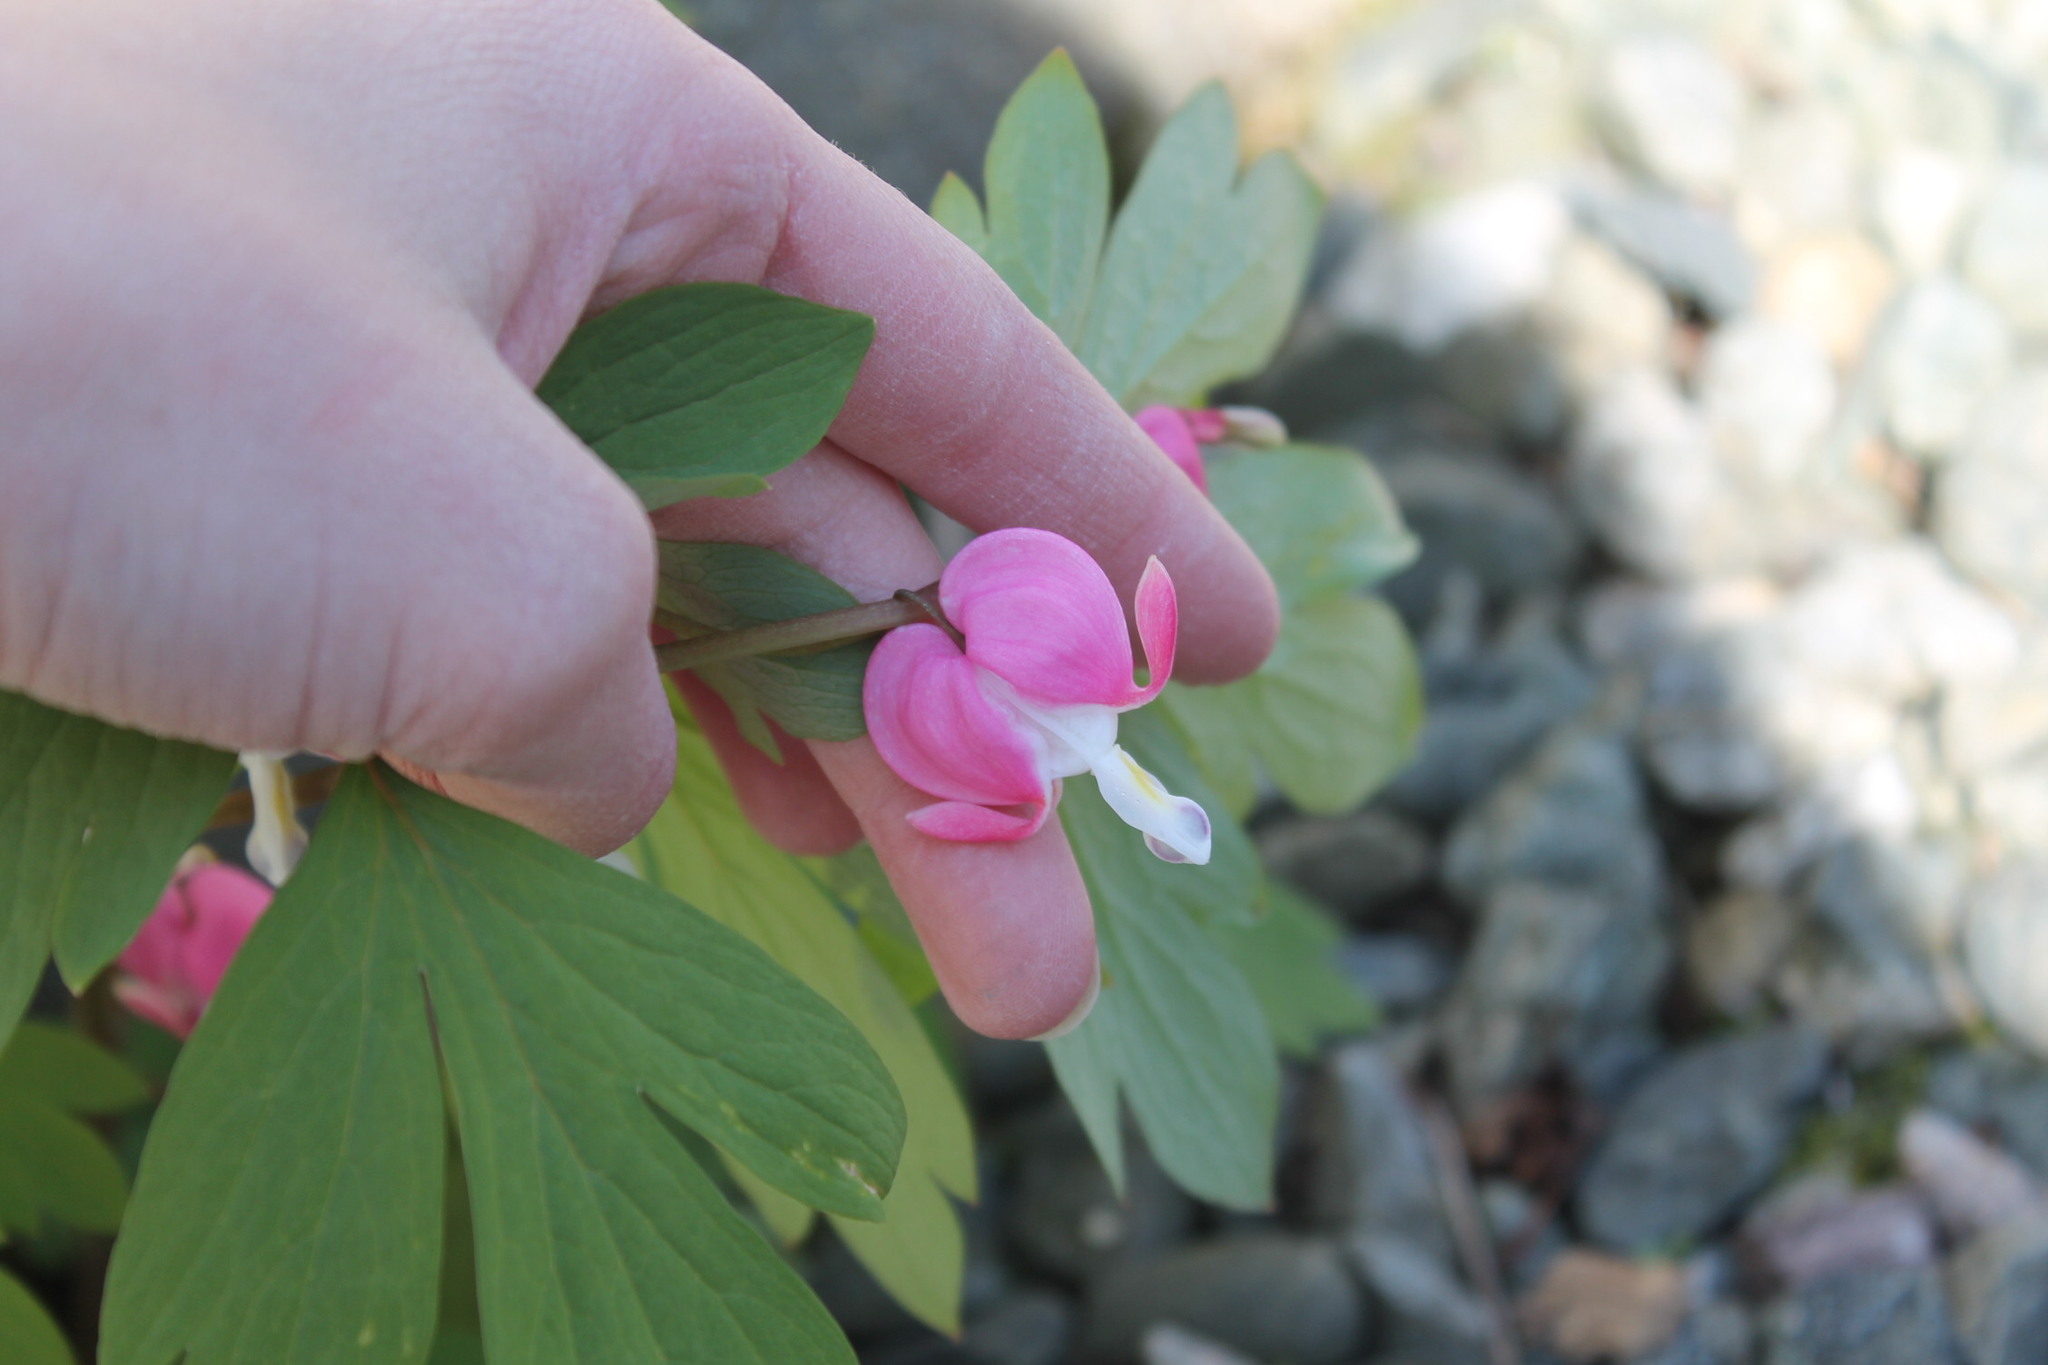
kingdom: Plantae
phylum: Tracheophyta
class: Magnoliopsida
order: Ranunculales
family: Papaveraceae
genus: Lamprocapnos
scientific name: Lamprocapnos spectabilis
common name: Asian bleeding-heart
